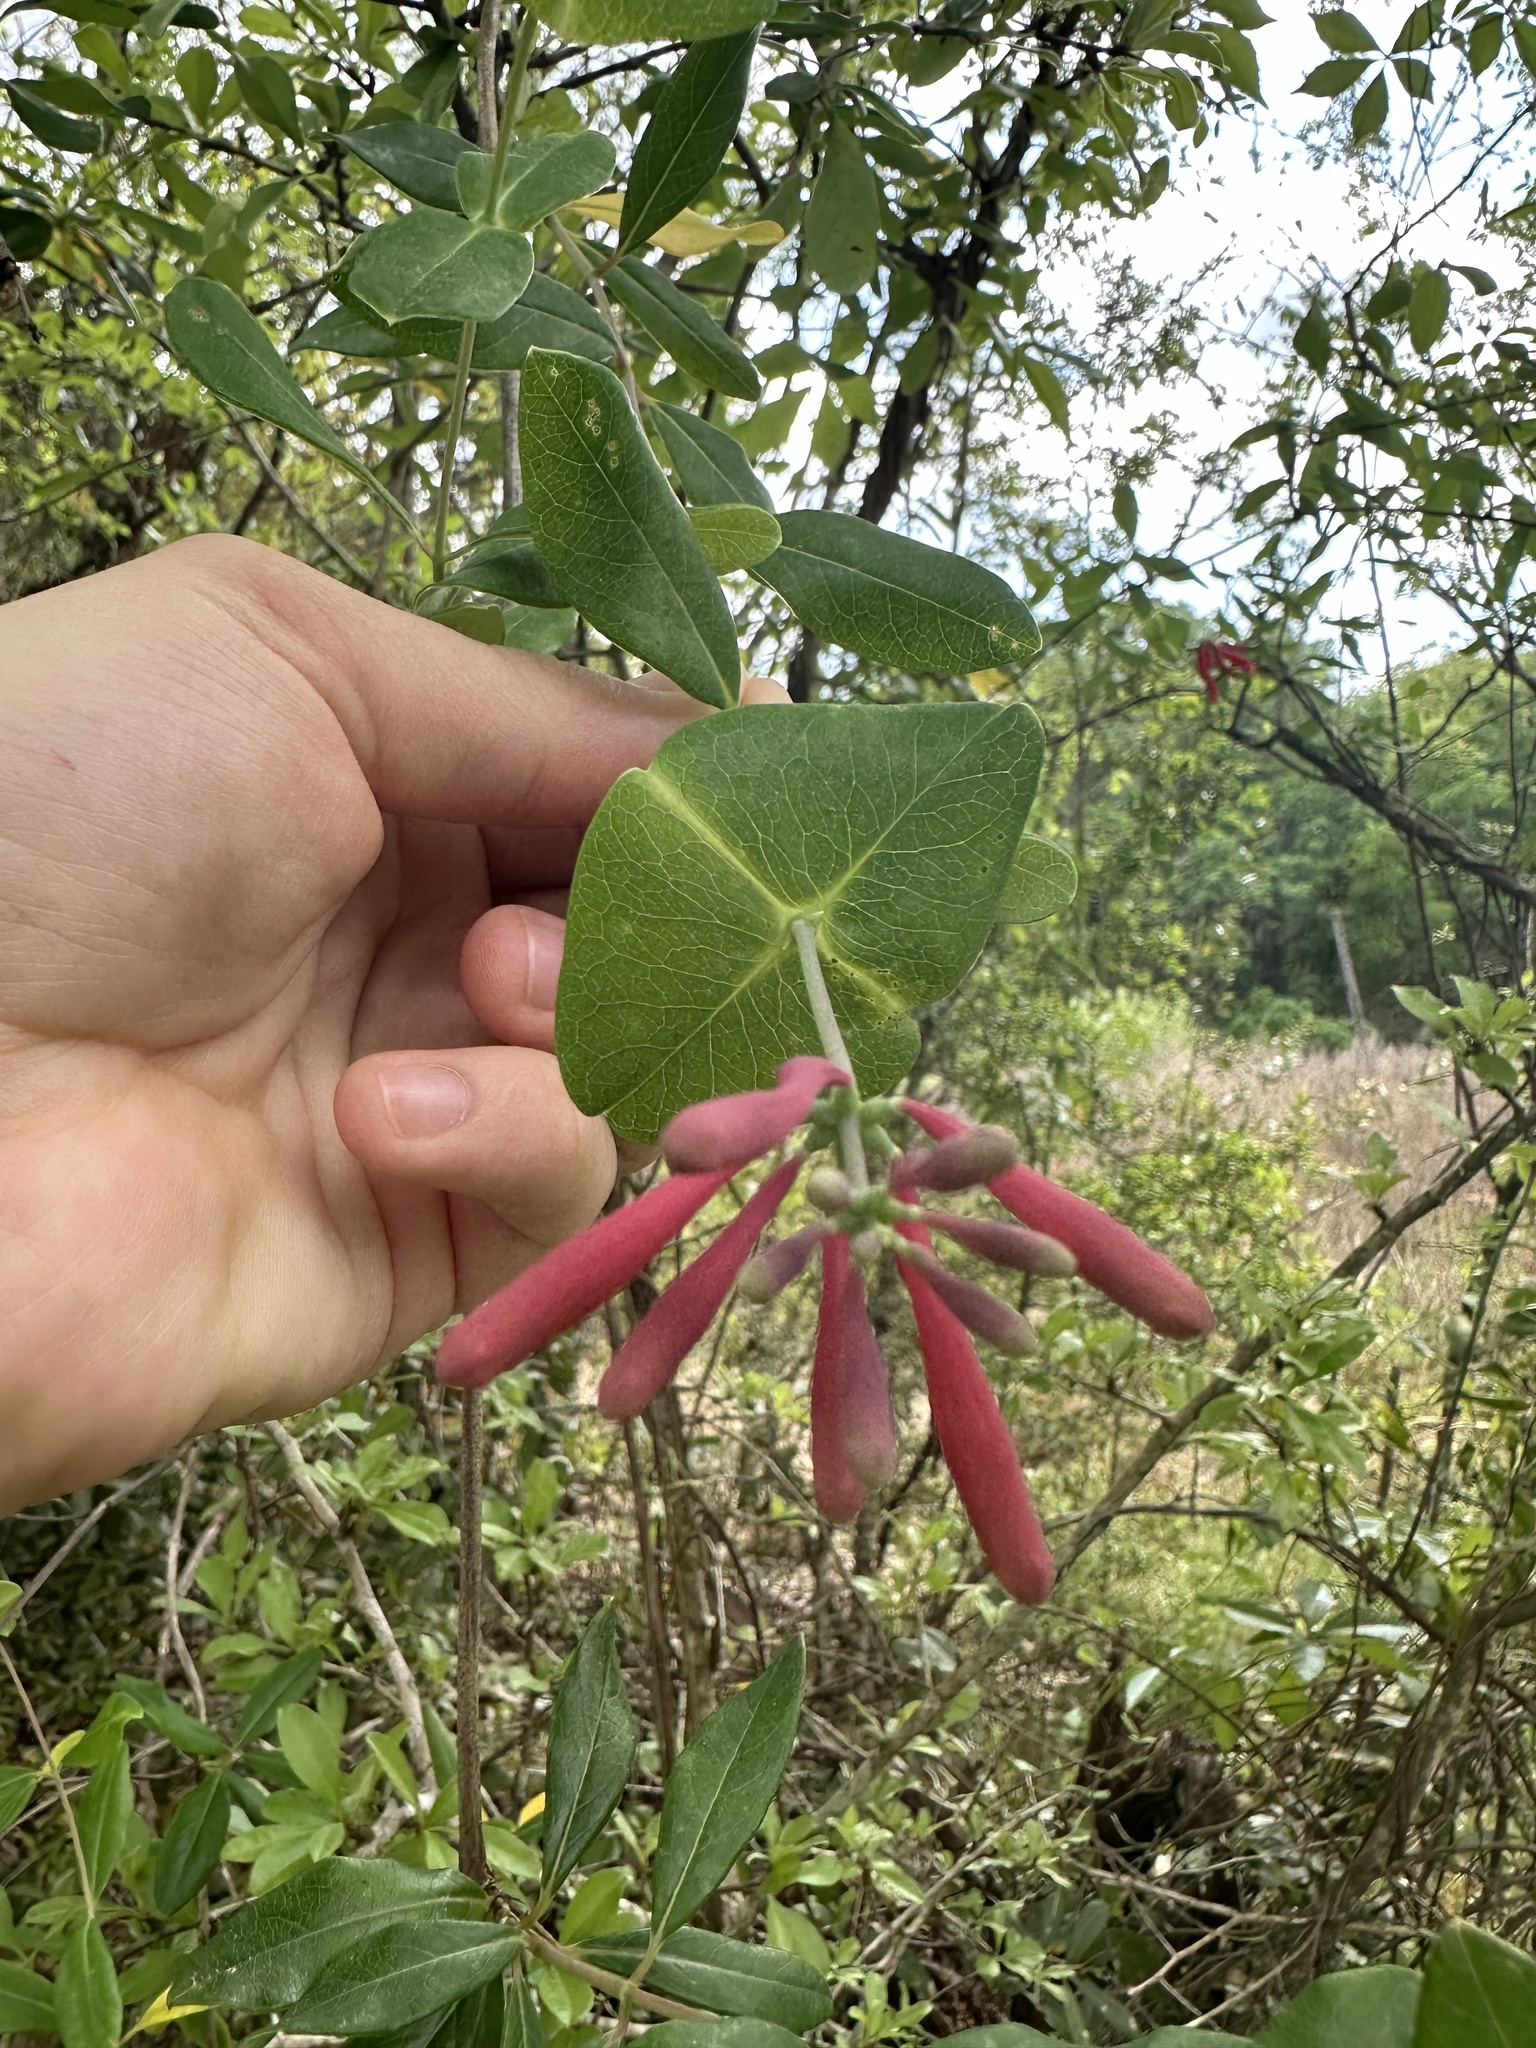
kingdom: Plantae
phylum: Tracheophyta
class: Magnoliopsida
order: Dipsacales
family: Caprifoliaceae
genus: Lonicera
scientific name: Lonicera sempervirens
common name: Coral honeysuckle
